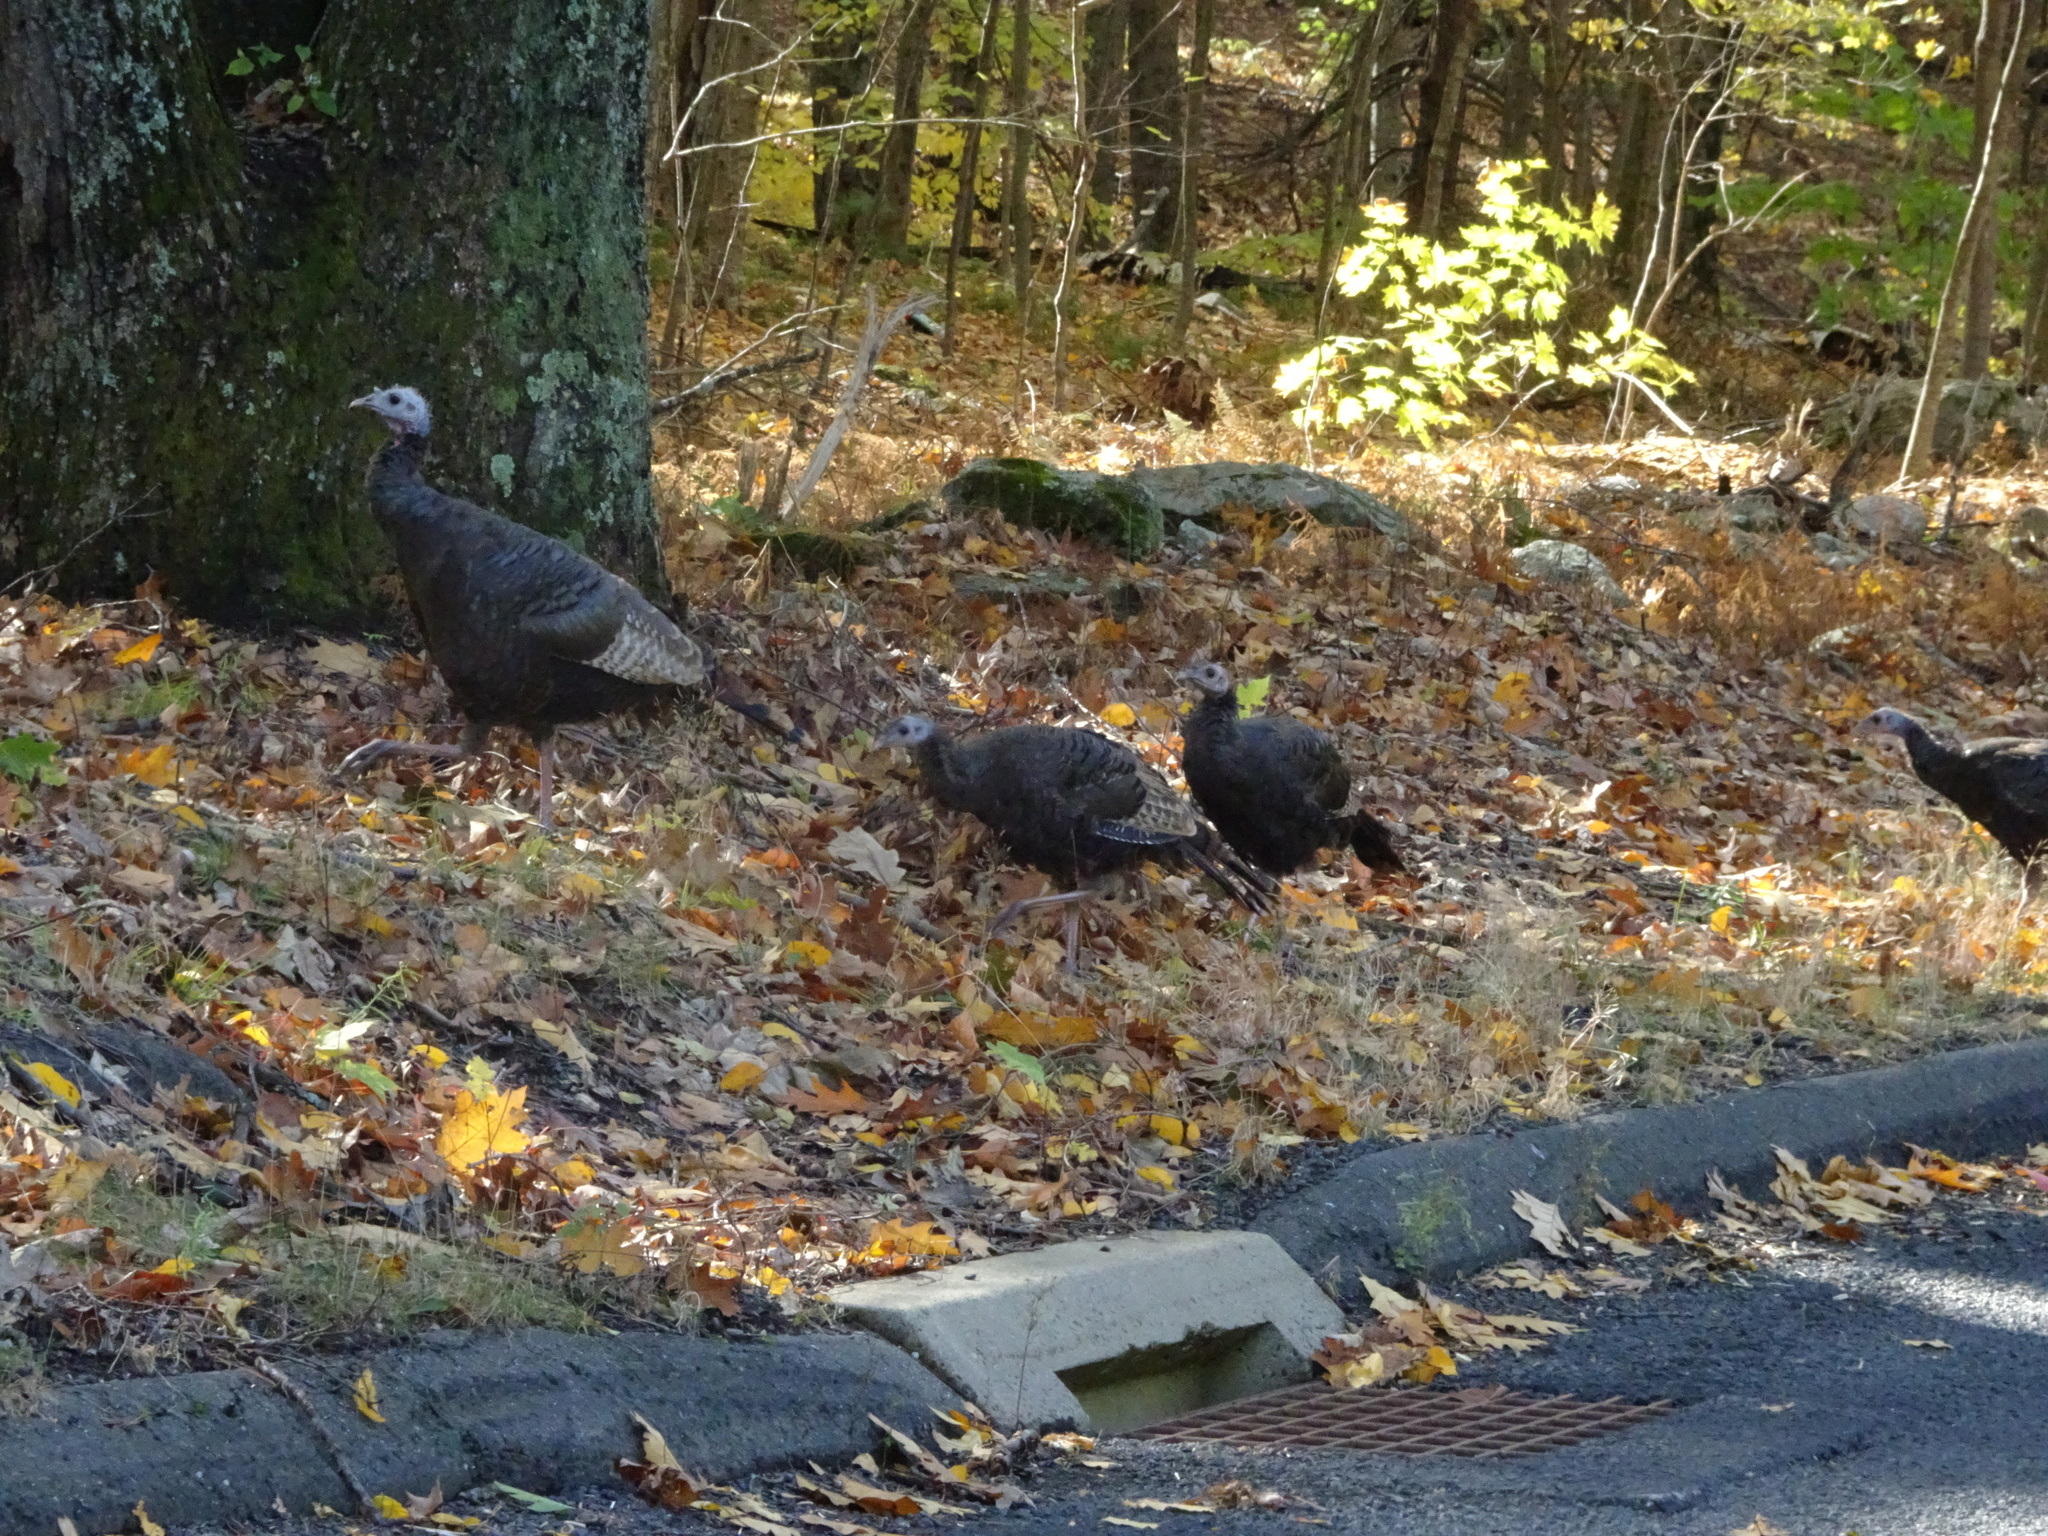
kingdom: Animalia
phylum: Chordata
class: Aves
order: Galliformes
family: Phasianidae
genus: Meleagris
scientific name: Meleagris gallopavo
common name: Wild turkey
